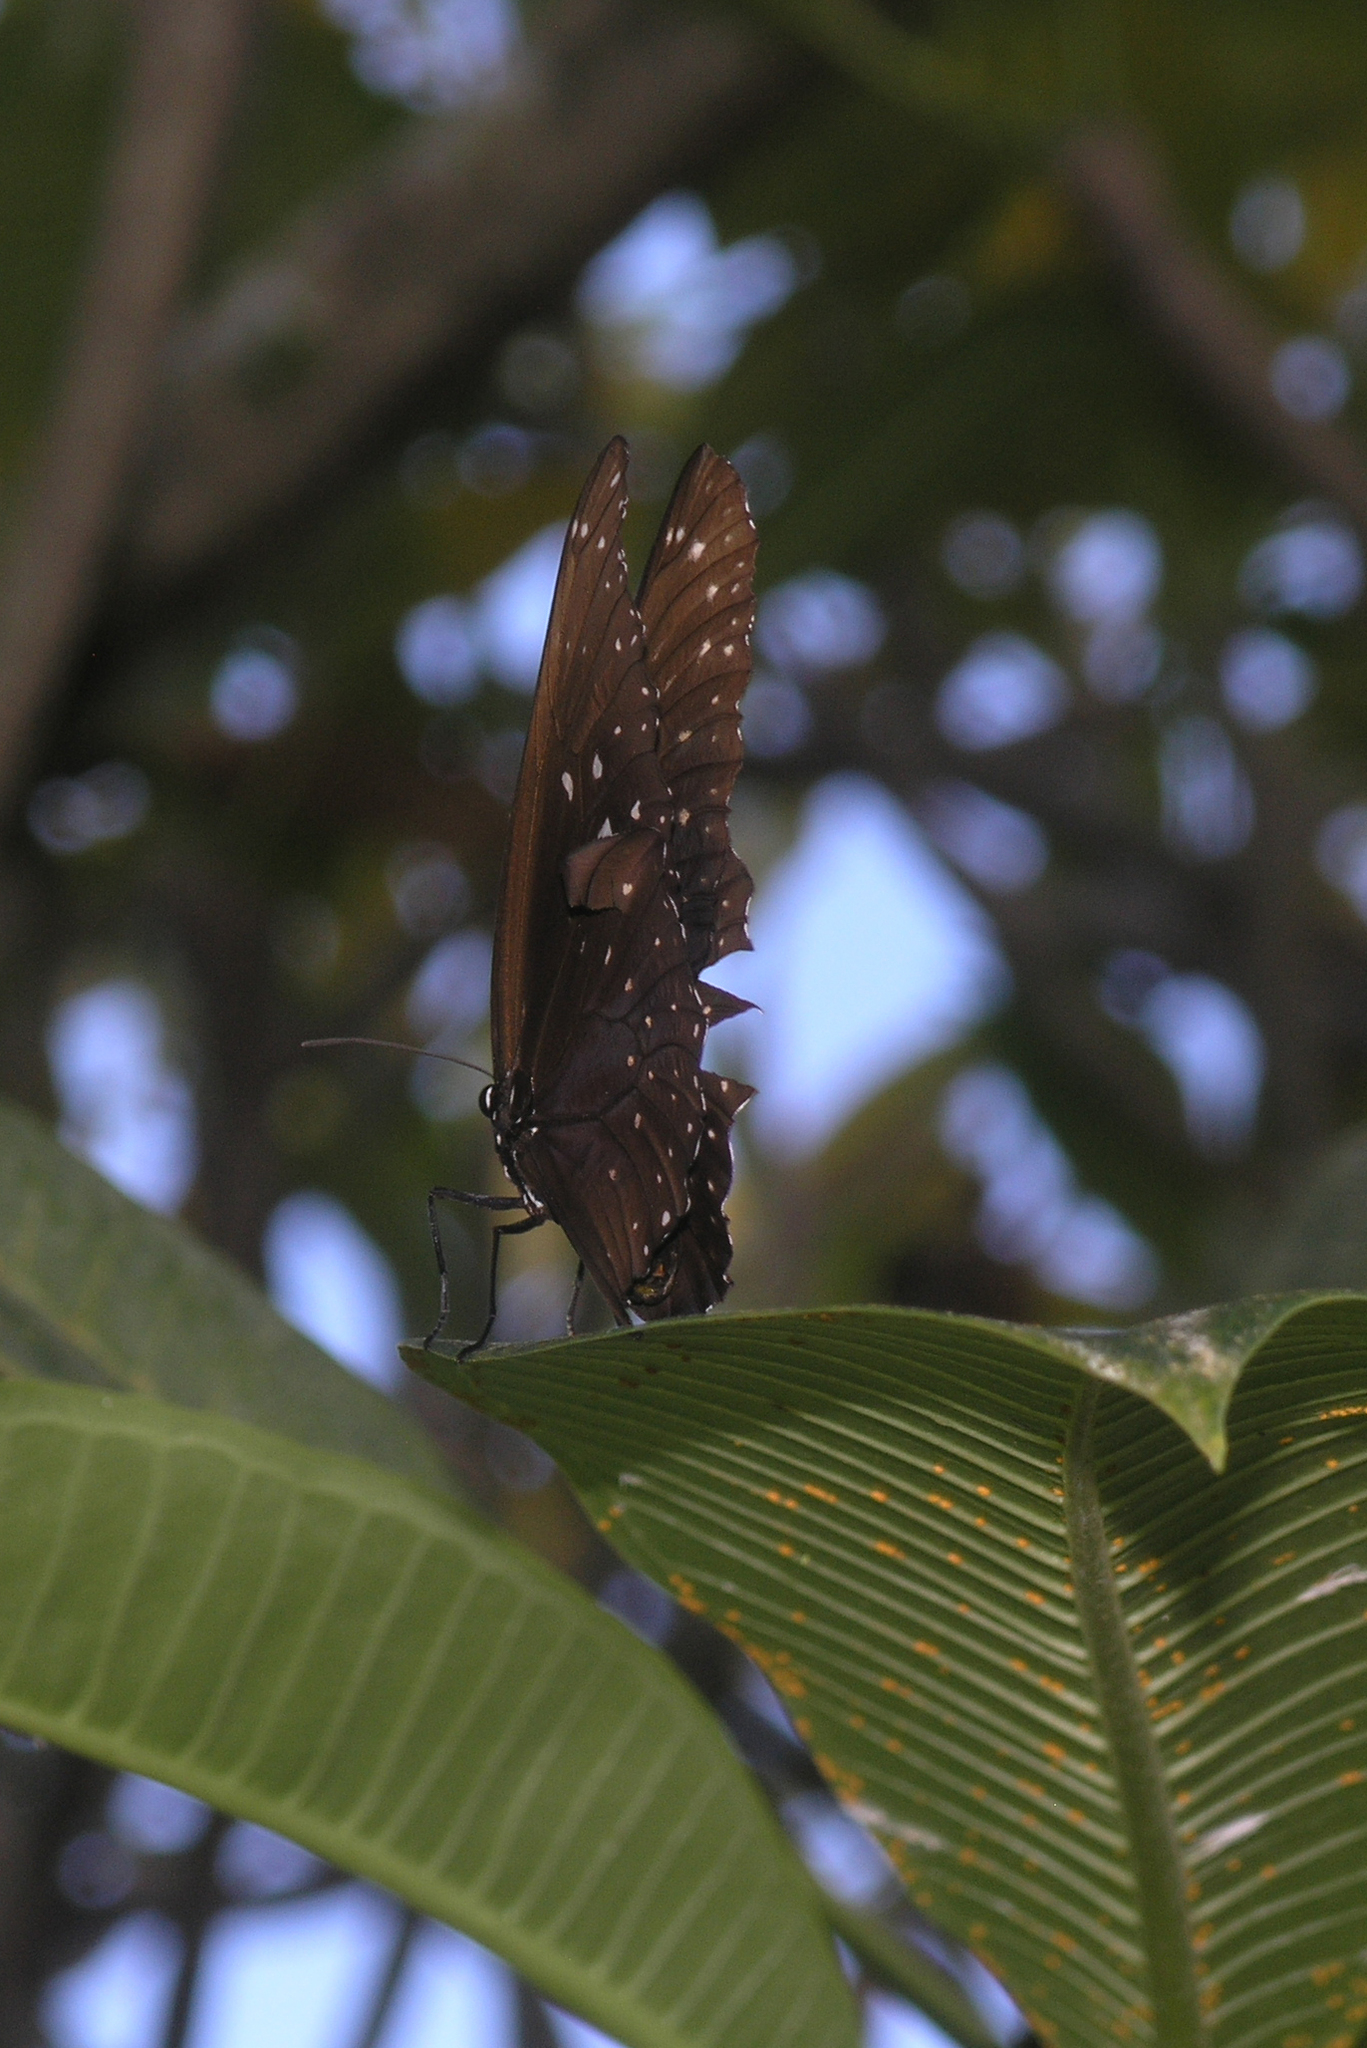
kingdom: Animalia
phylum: Arthropoda
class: Insecta
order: Lepidoptera
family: Nymphalidae
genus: Euploea
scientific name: Euploea phaenareta
